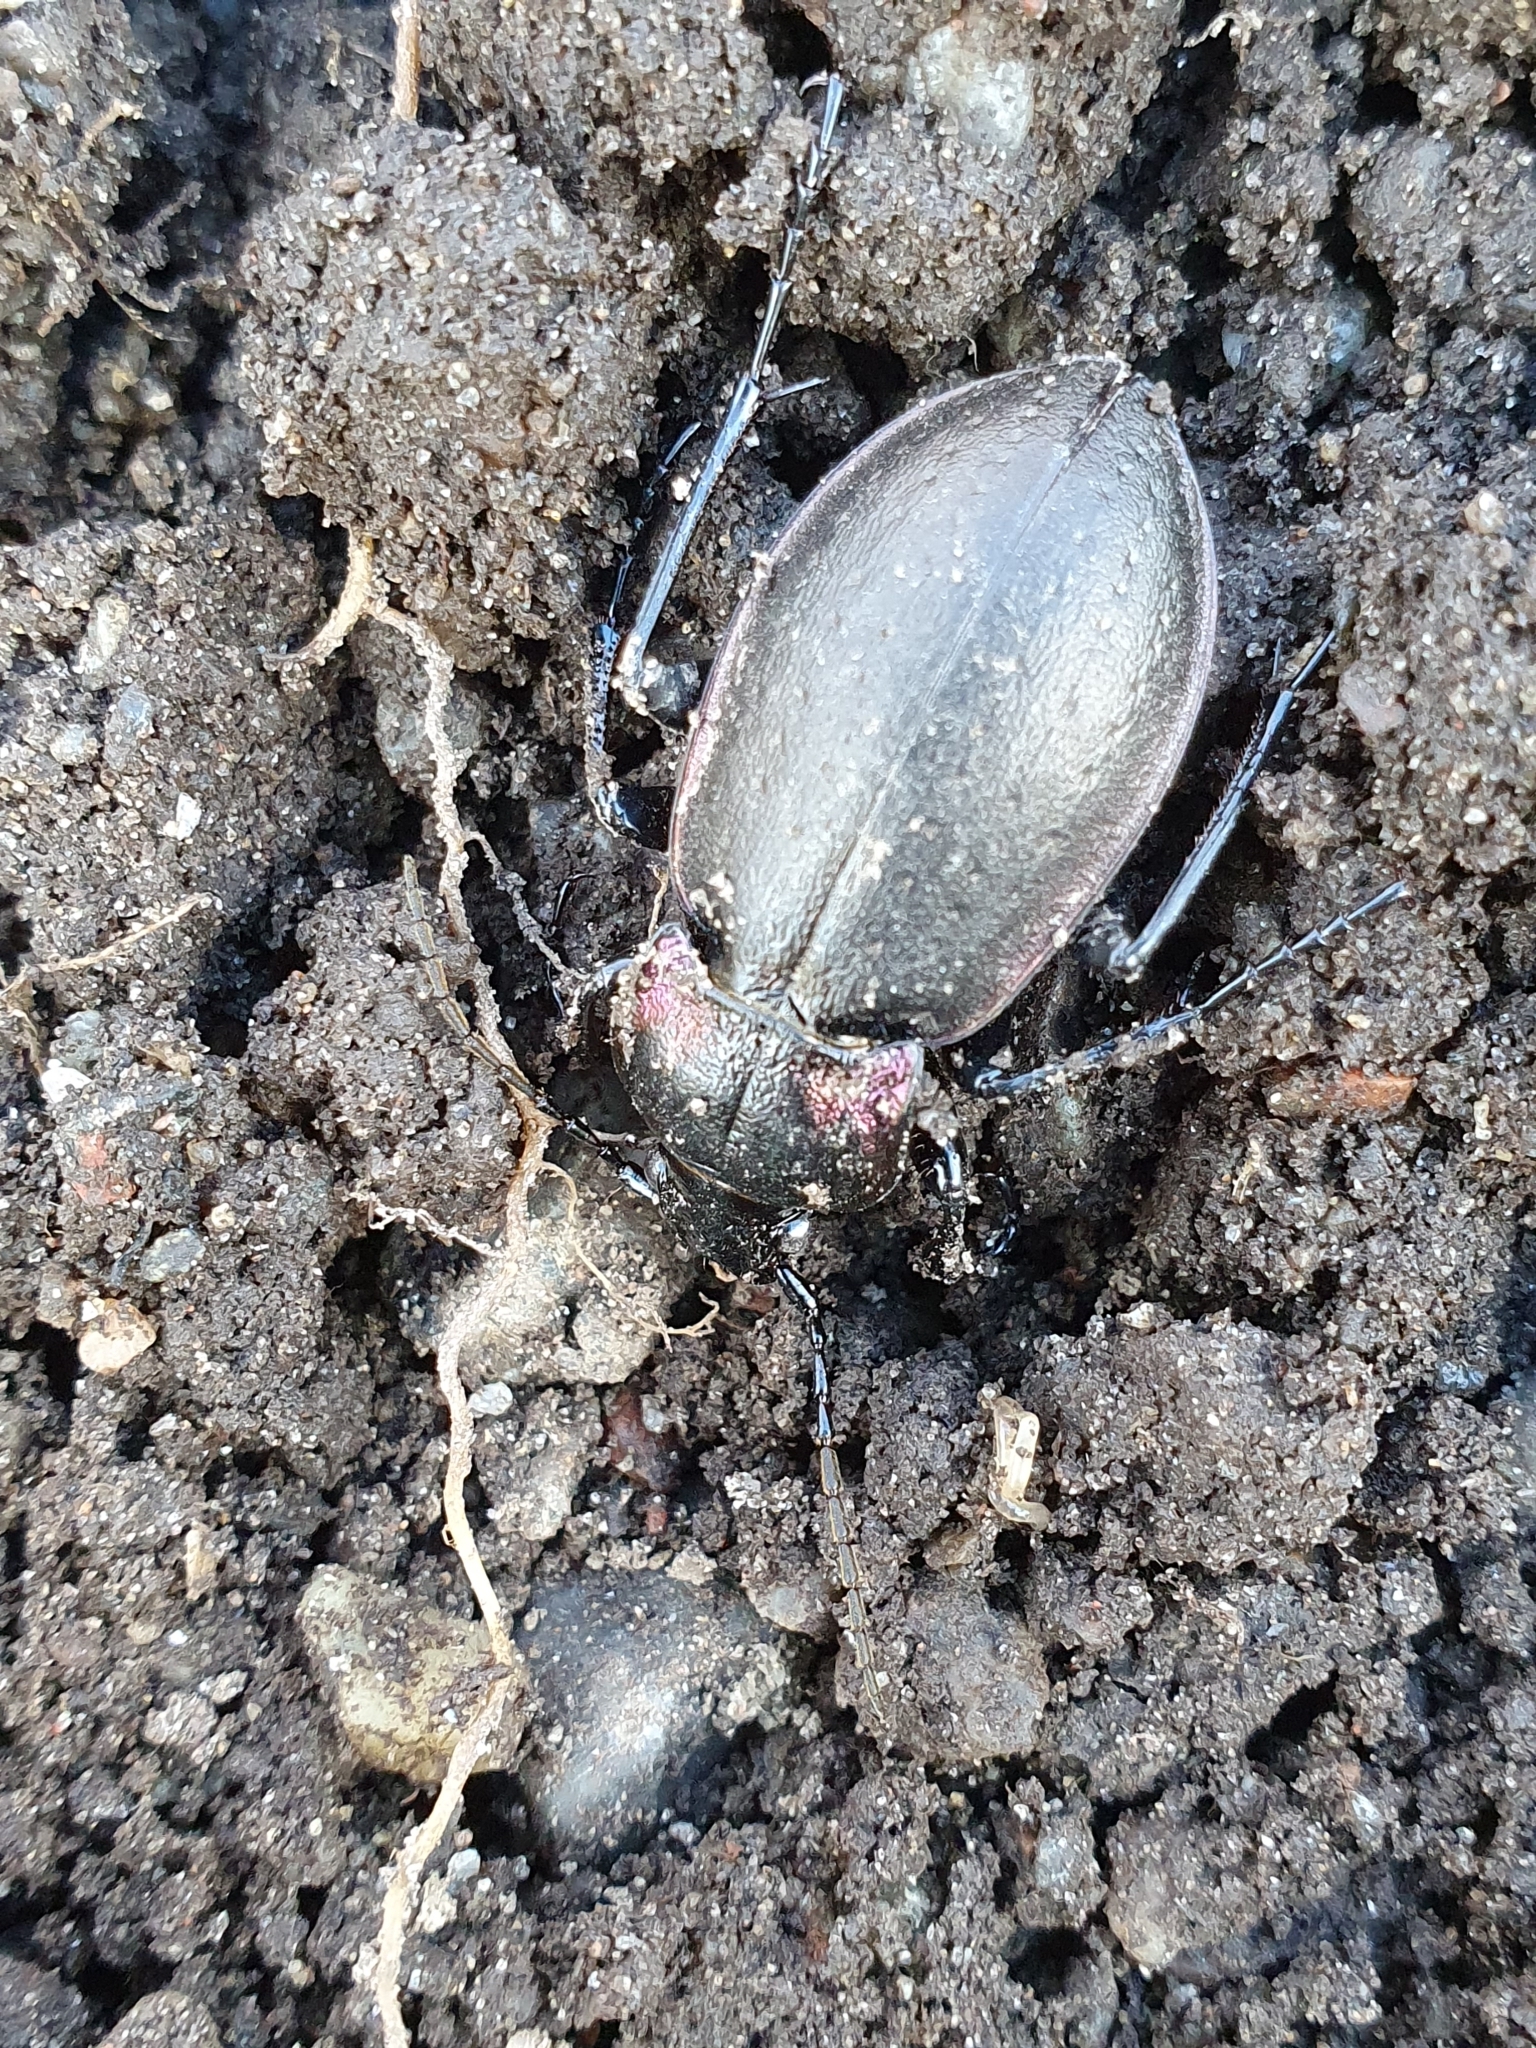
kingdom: Animalia
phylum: Arthropoda
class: Insecta
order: Coleoptera
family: Carabidae
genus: Carabus
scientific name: Carabus nemoralis
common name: European ground beetle
